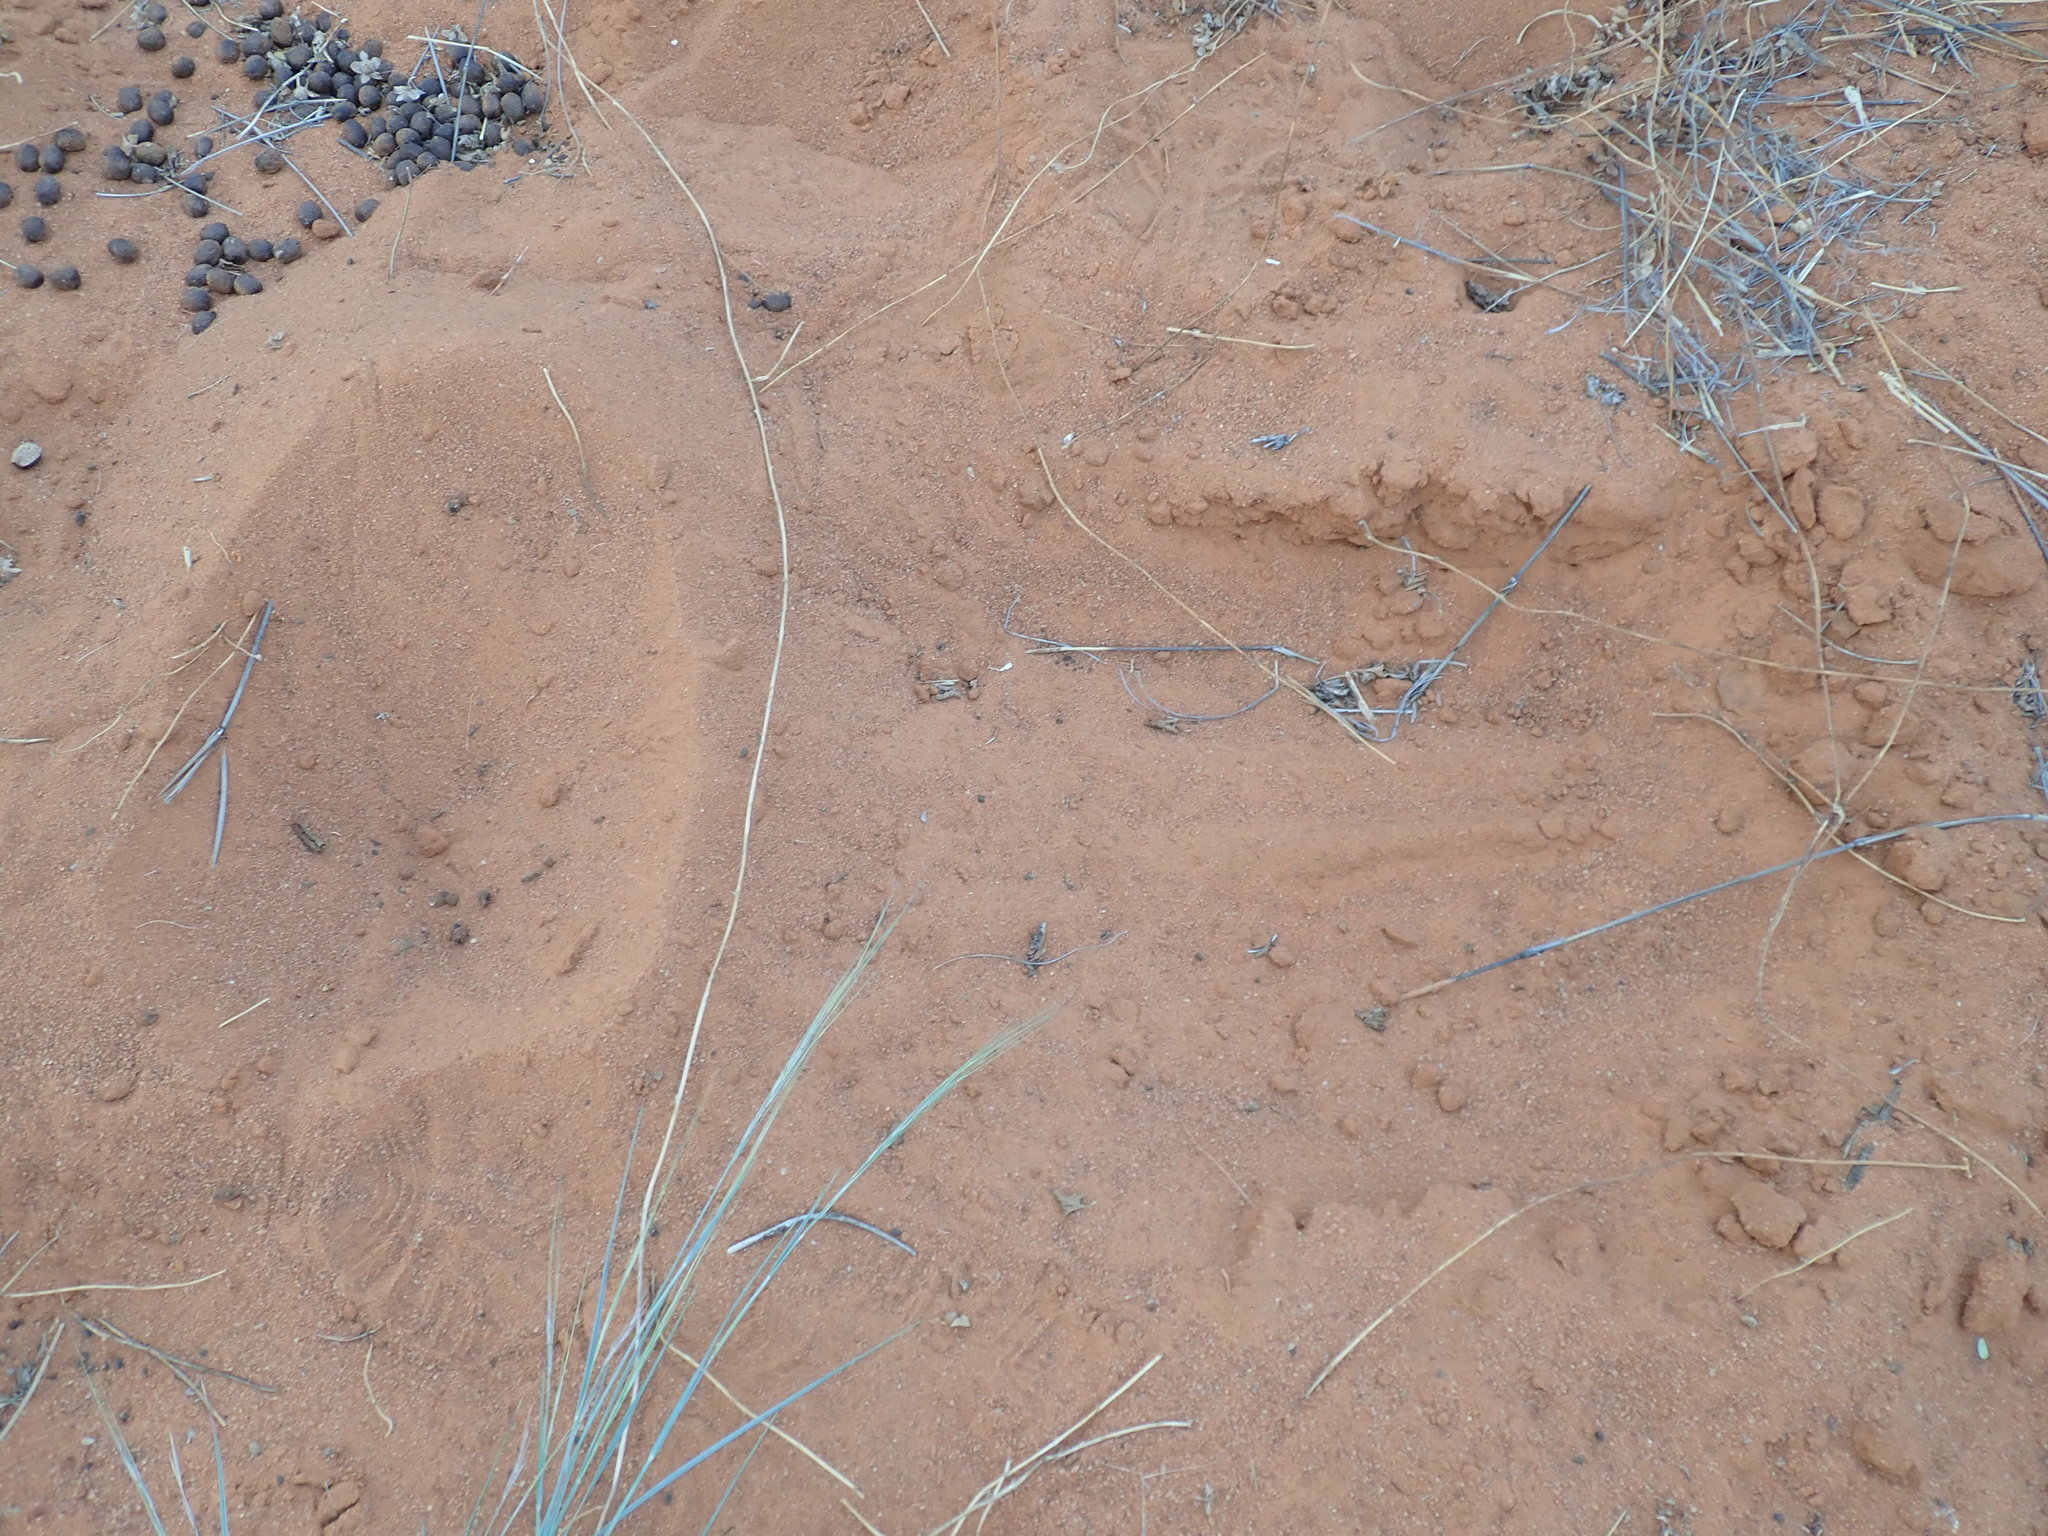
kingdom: Animalia
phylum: Chordata
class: Mammalia
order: Artiodactyla
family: Bovidae
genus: Raphicerus
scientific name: Raphicerus campestris
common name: Steenbok
